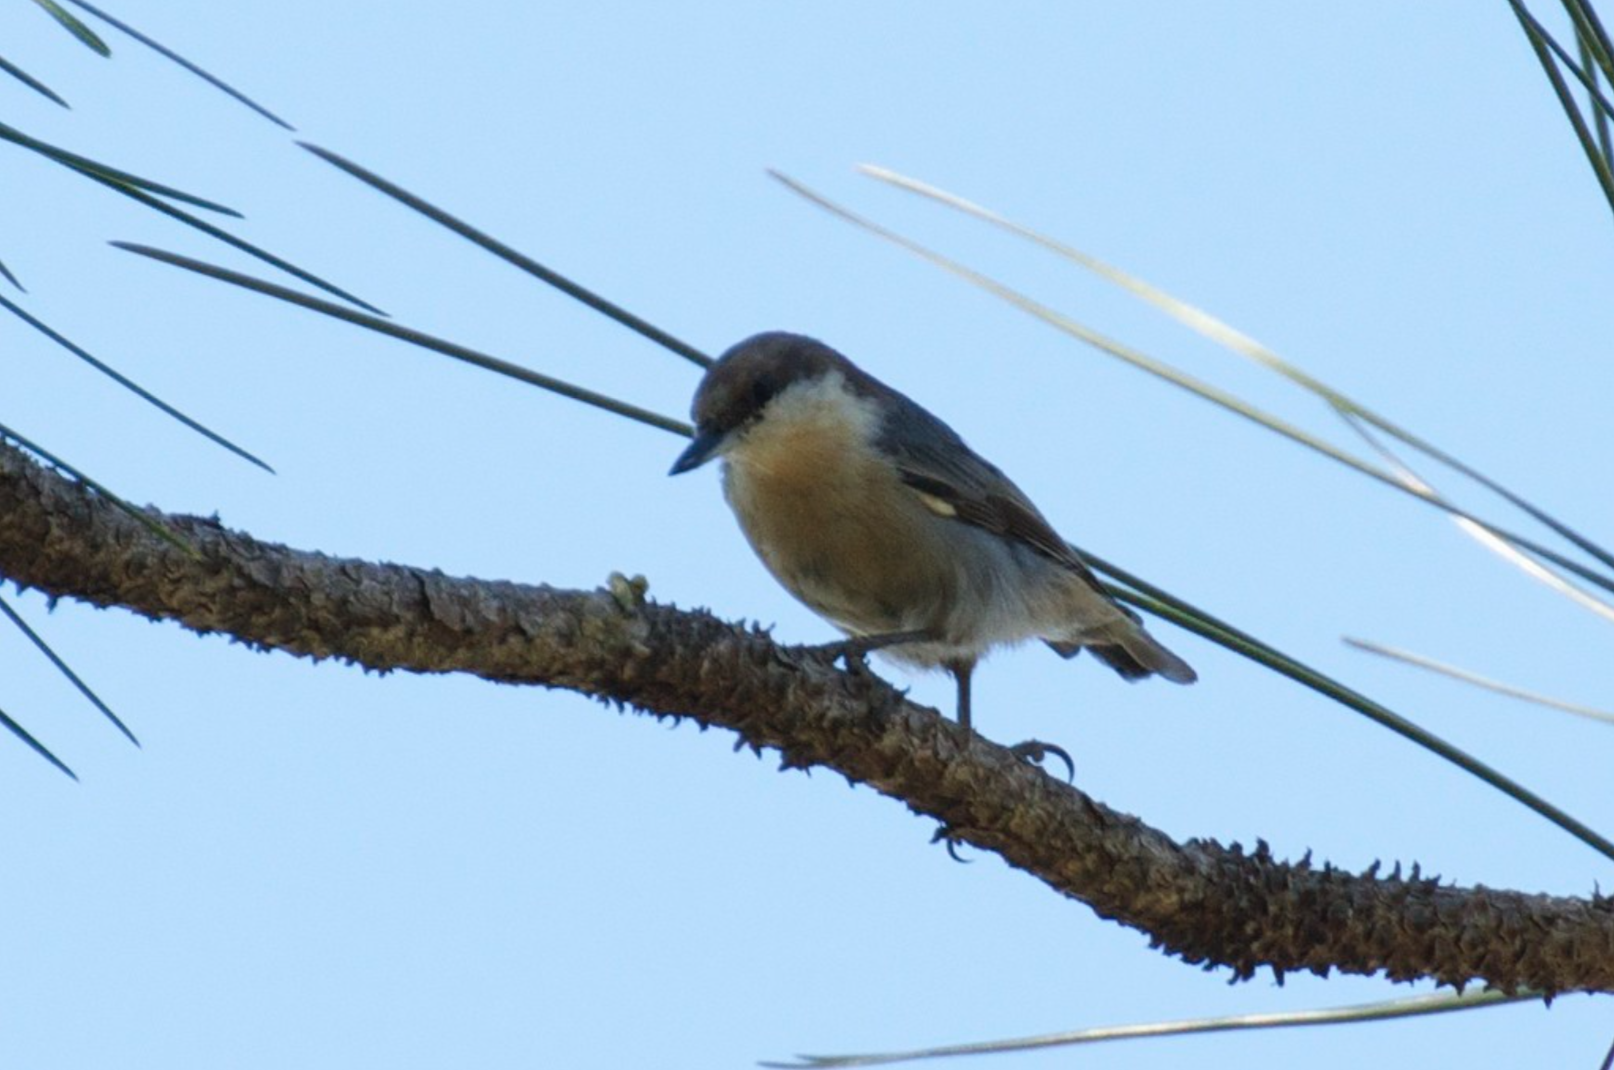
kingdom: Animalia
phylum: Chordata
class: Aves
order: Passeriformes
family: Sittidae
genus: Sitta
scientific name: Sitta pusilla
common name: Brown-headed nuthatch
